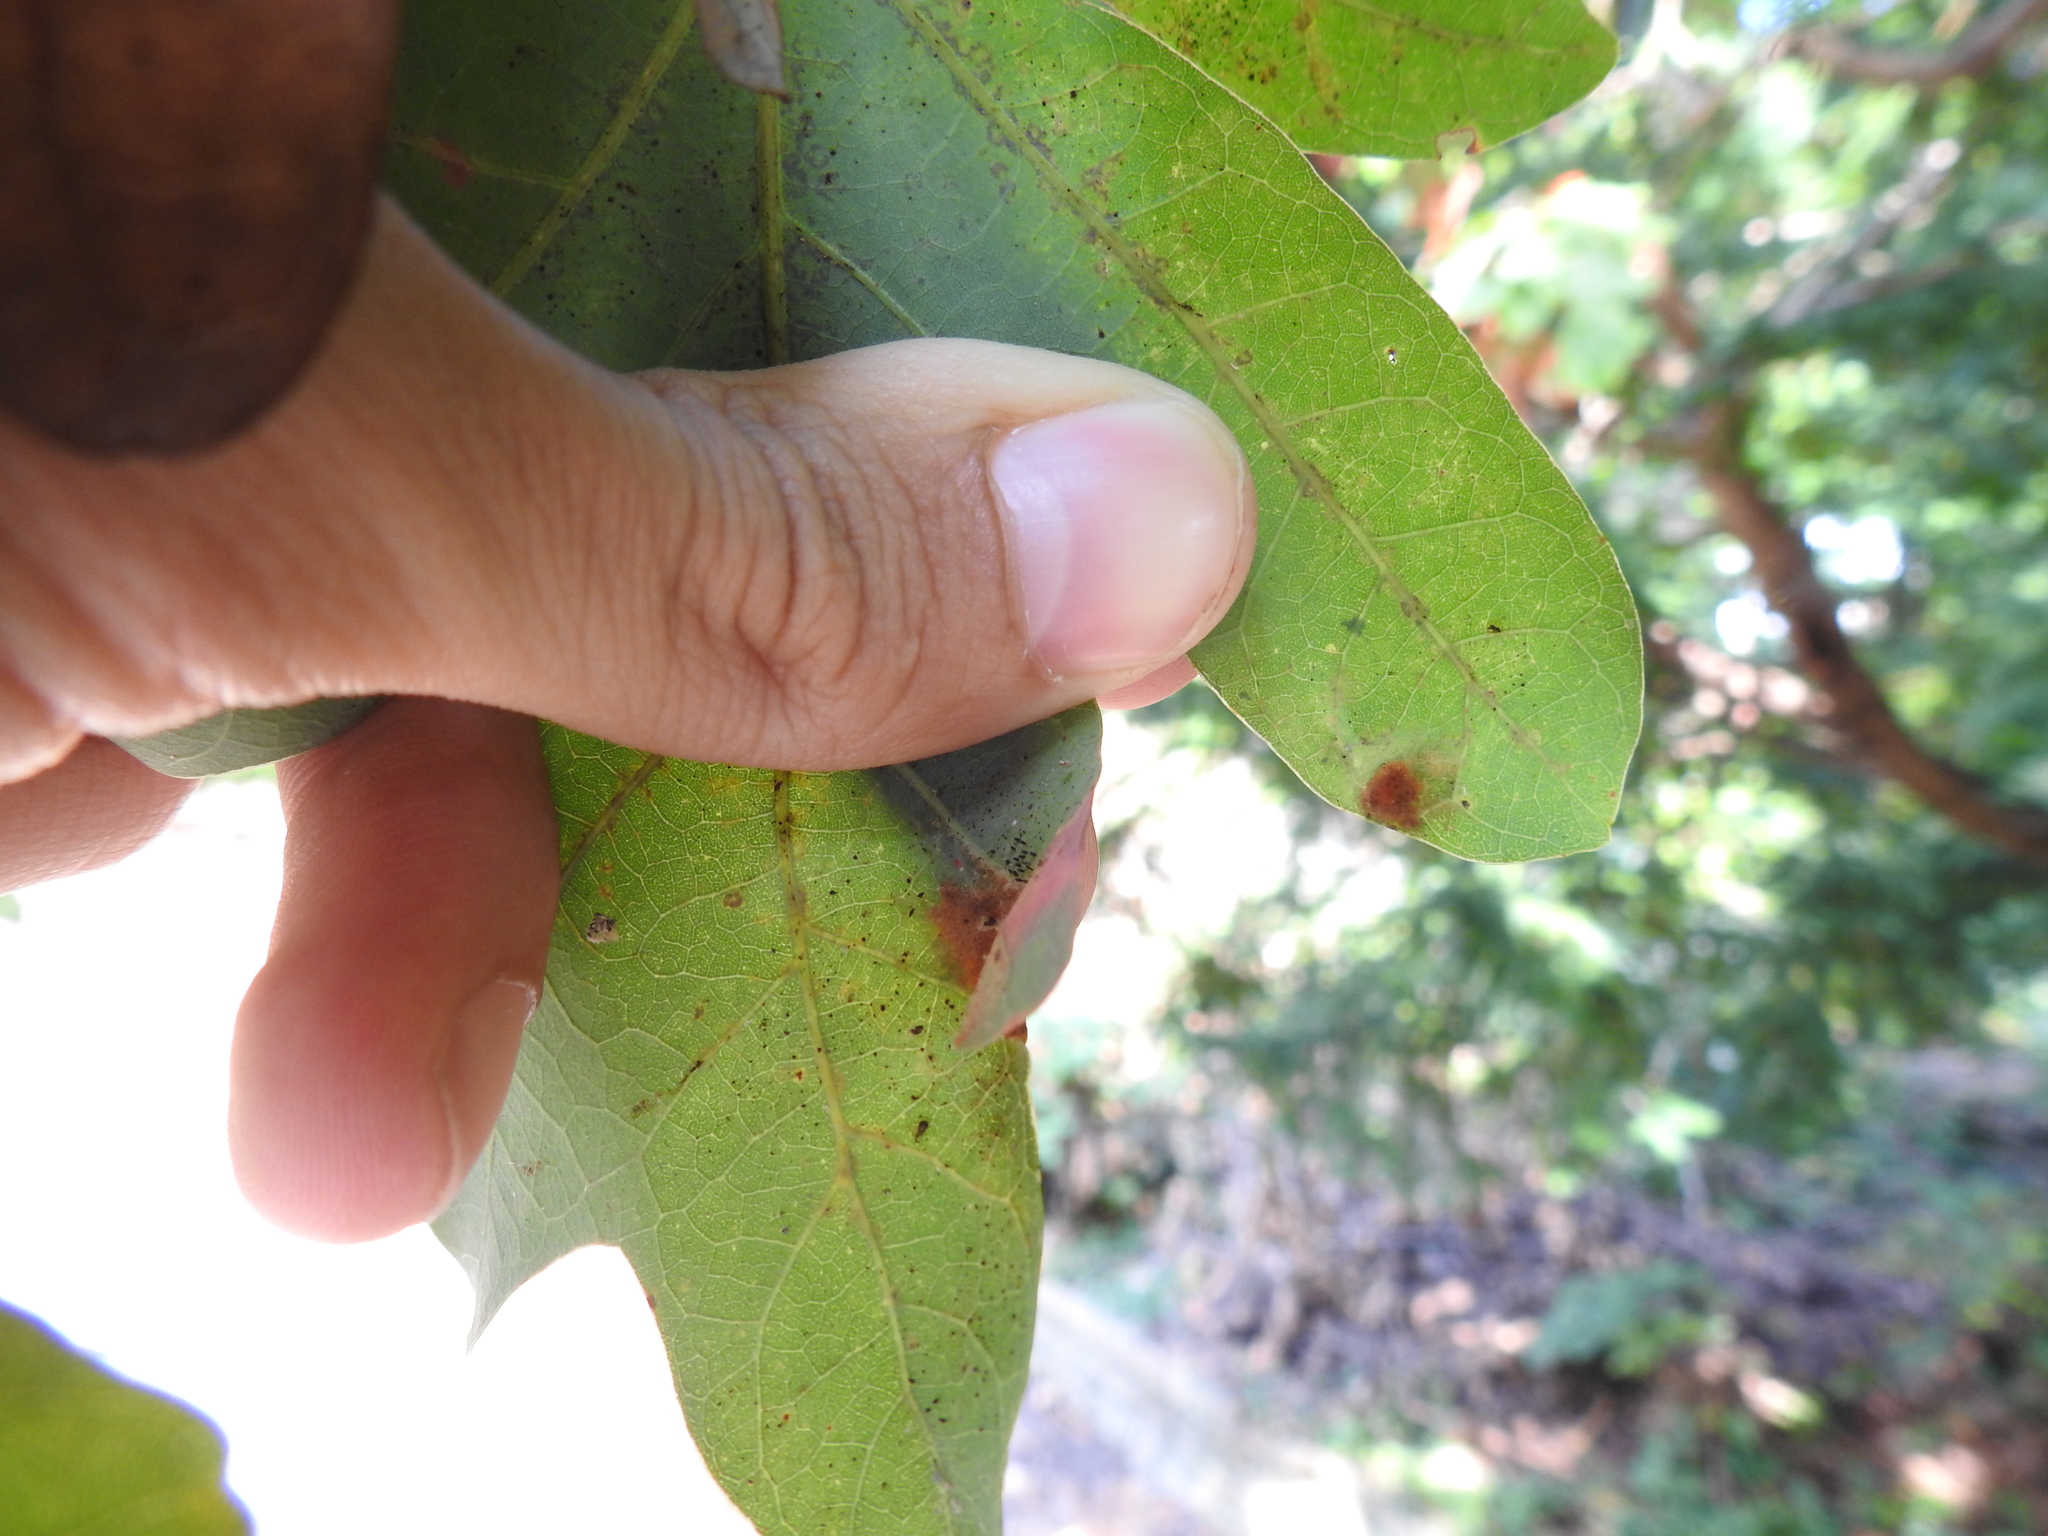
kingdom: Animalia
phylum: Arthropoda
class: Arachnida
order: Trombidiformes
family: Eriophyidae
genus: Aceria
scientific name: Aceria
